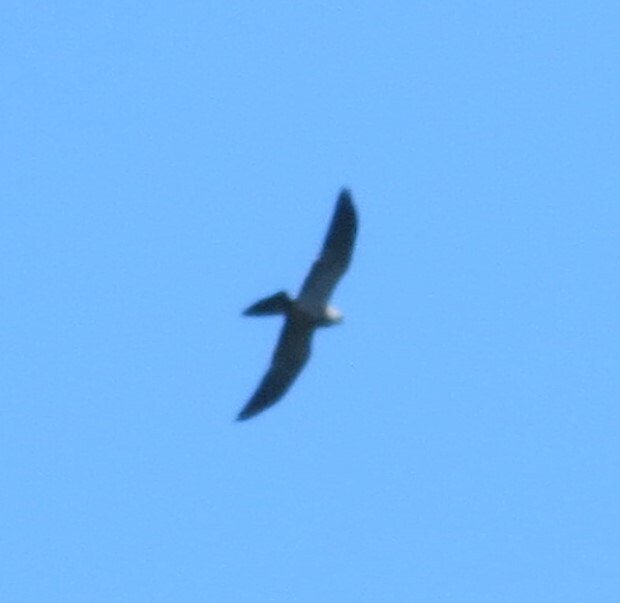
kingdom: Animalia
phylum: Chordata
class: Aves
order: Accipitriformes
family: Accipitridae
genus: Ictinia
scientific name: Ictinia mississippiensis
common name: Mississippi kite
